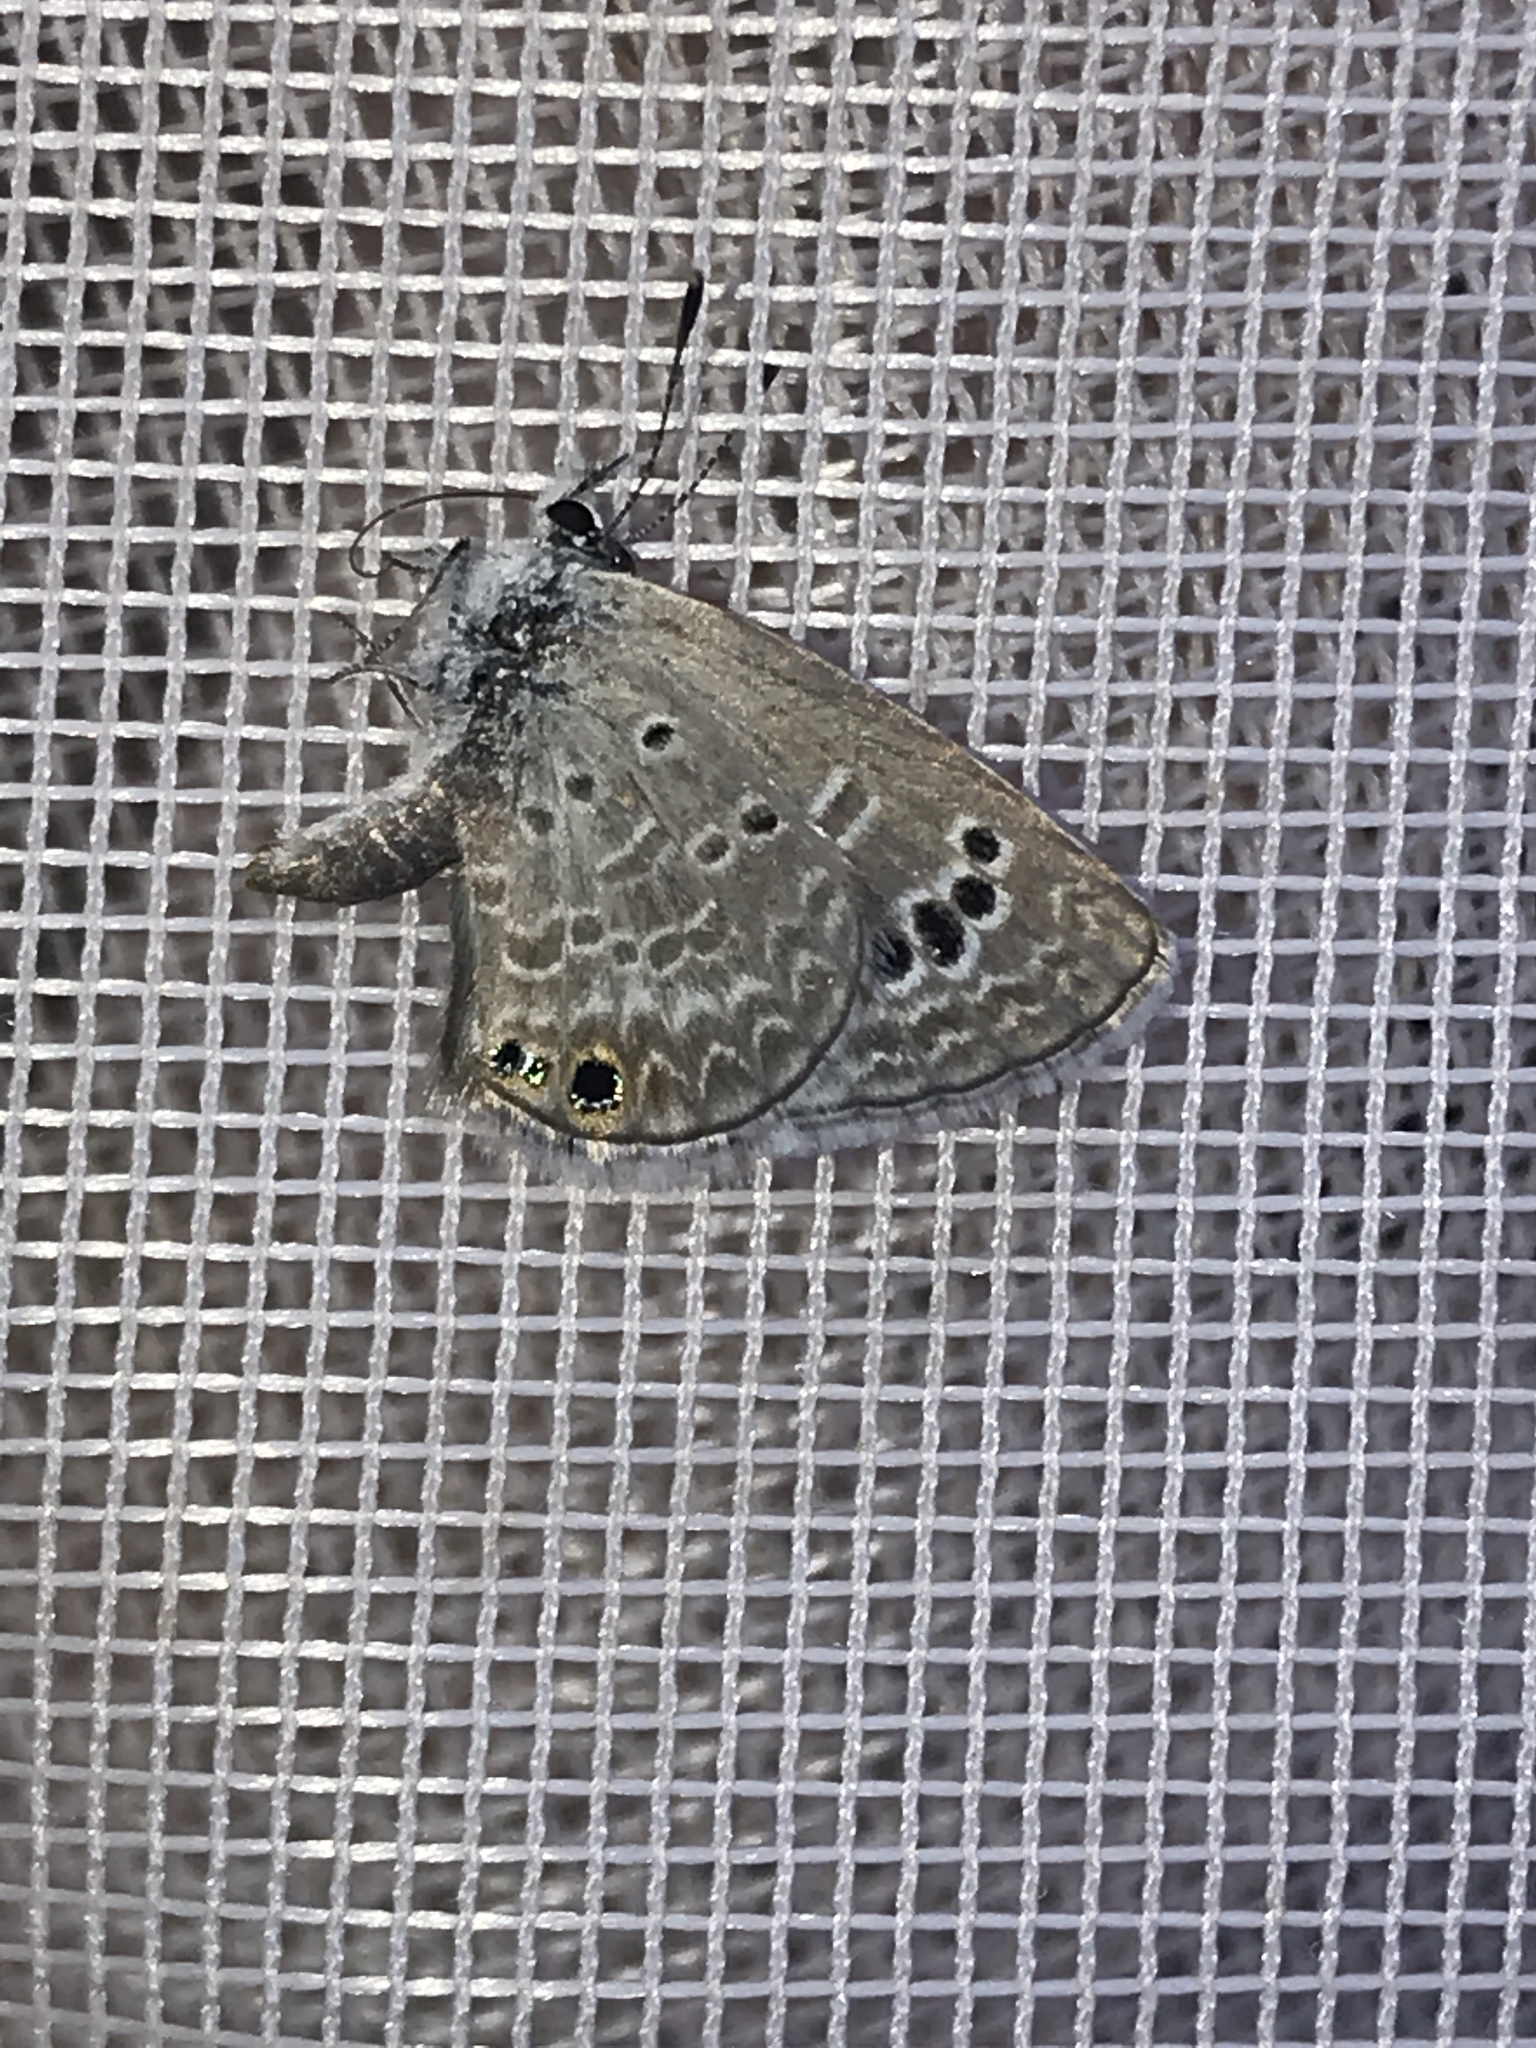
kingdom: Animalia
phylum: Arthropoda
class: Insecta
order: Lepidoptera
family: Lycaenidae
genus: Echinargus
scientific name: Echinargus isola
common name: Reakirt's blue
